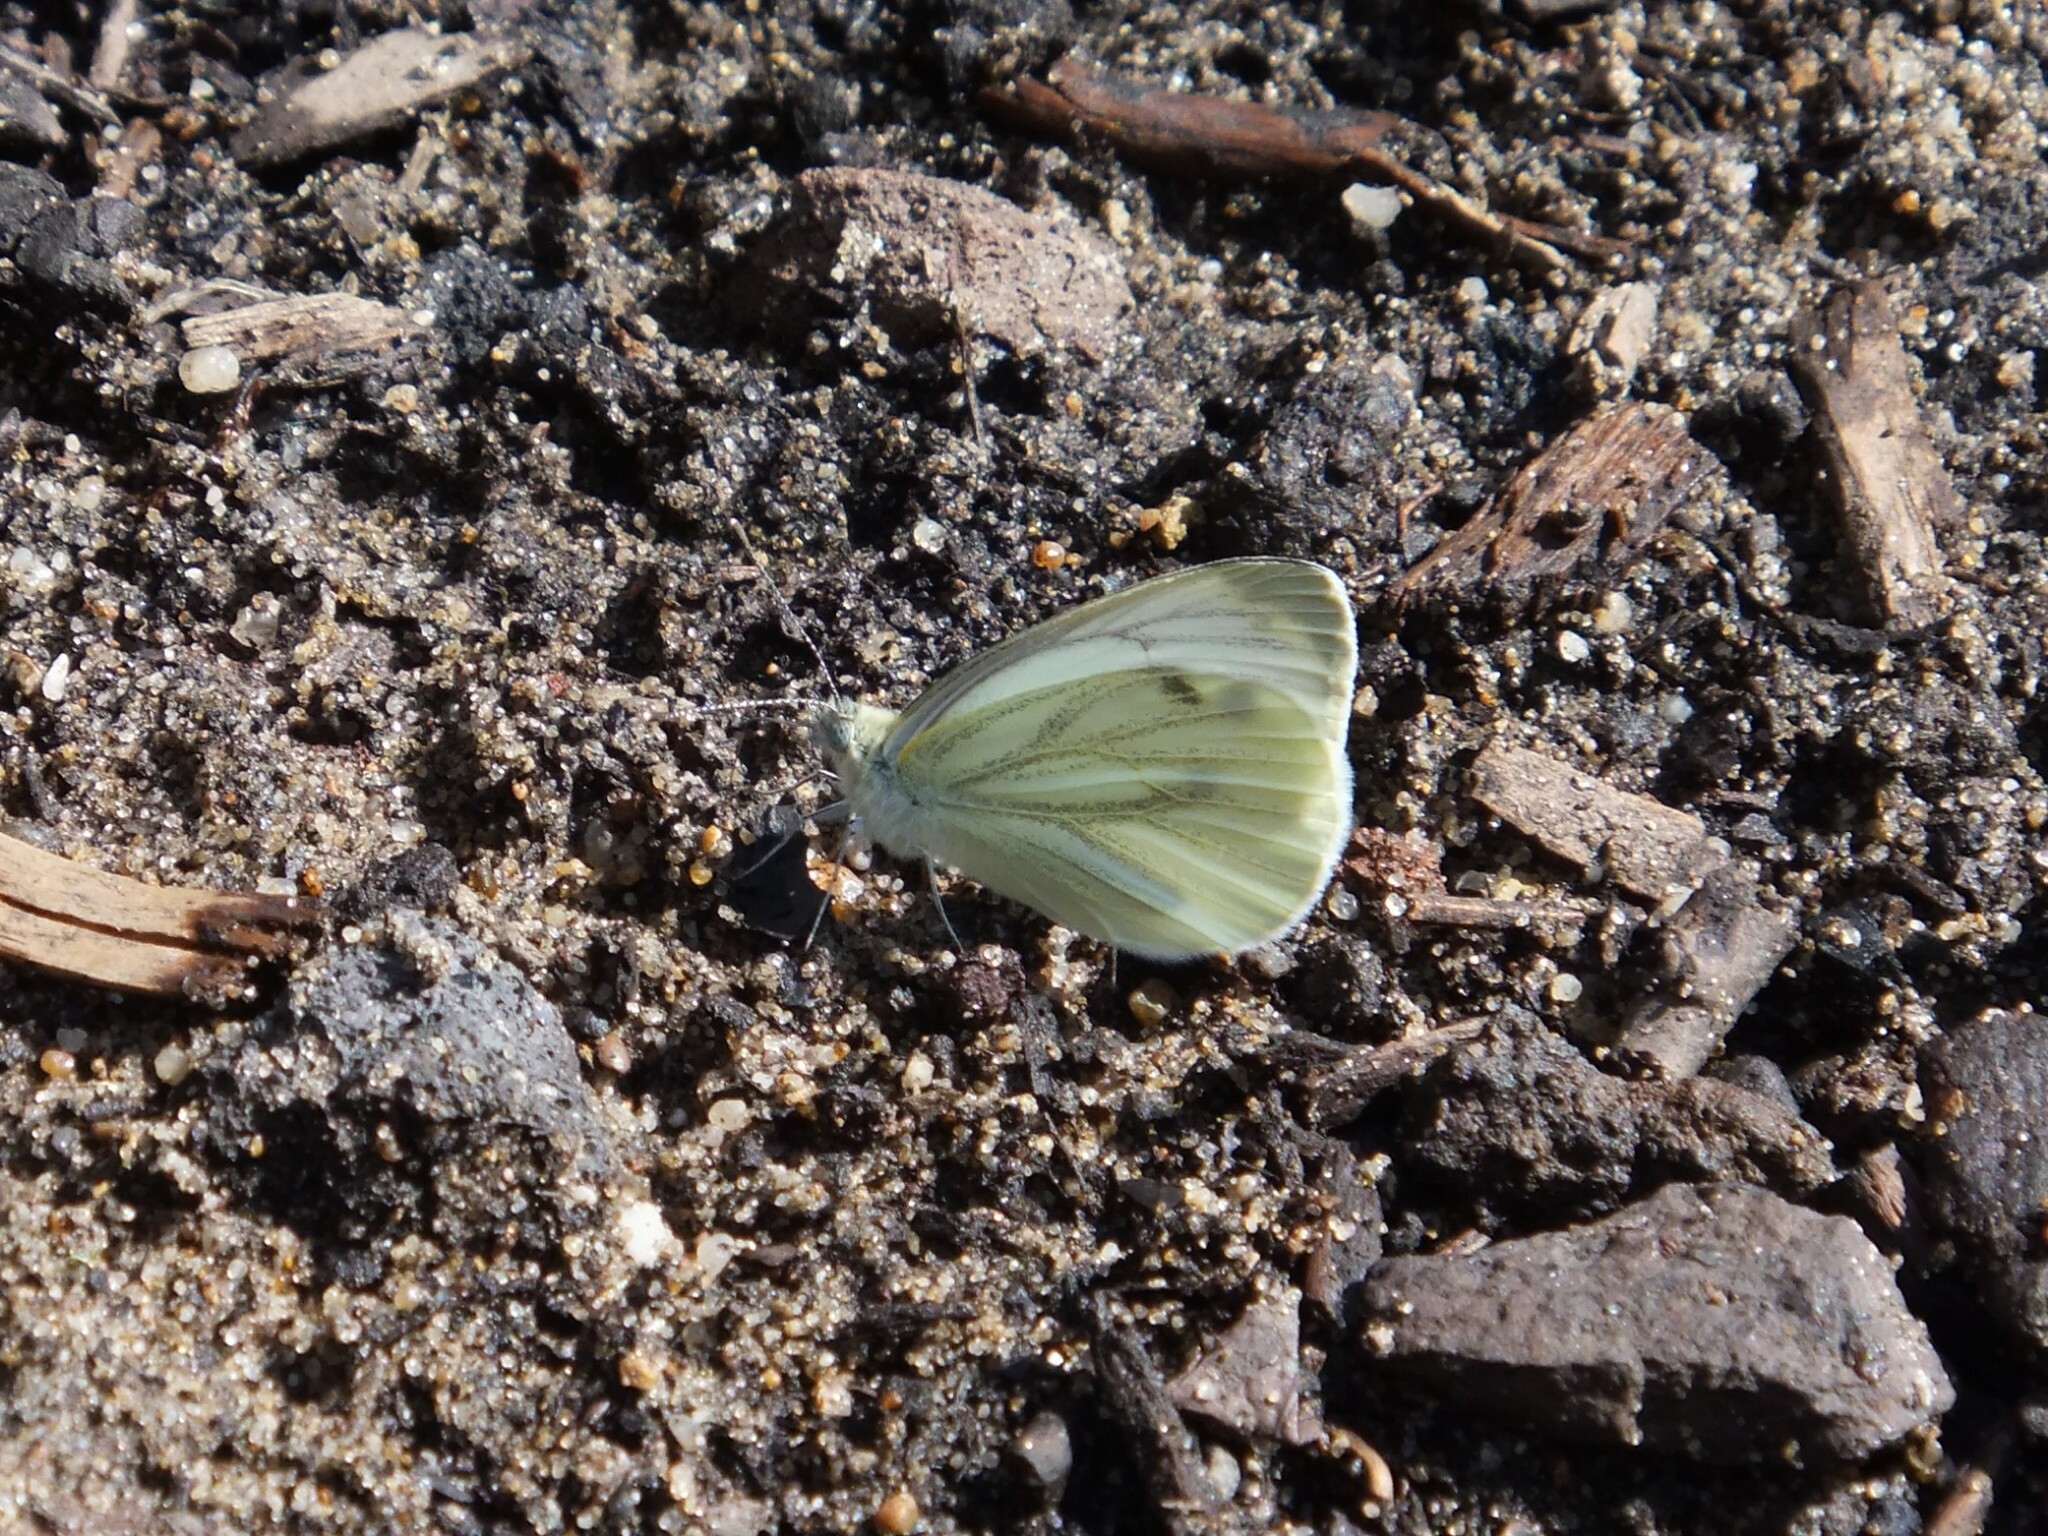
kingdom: Animalia
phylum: Arthropoda
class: Insecta
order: Lepidoptera
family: Pieridae
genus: Pieris
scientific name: Pieris napi
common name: Green-veined white
